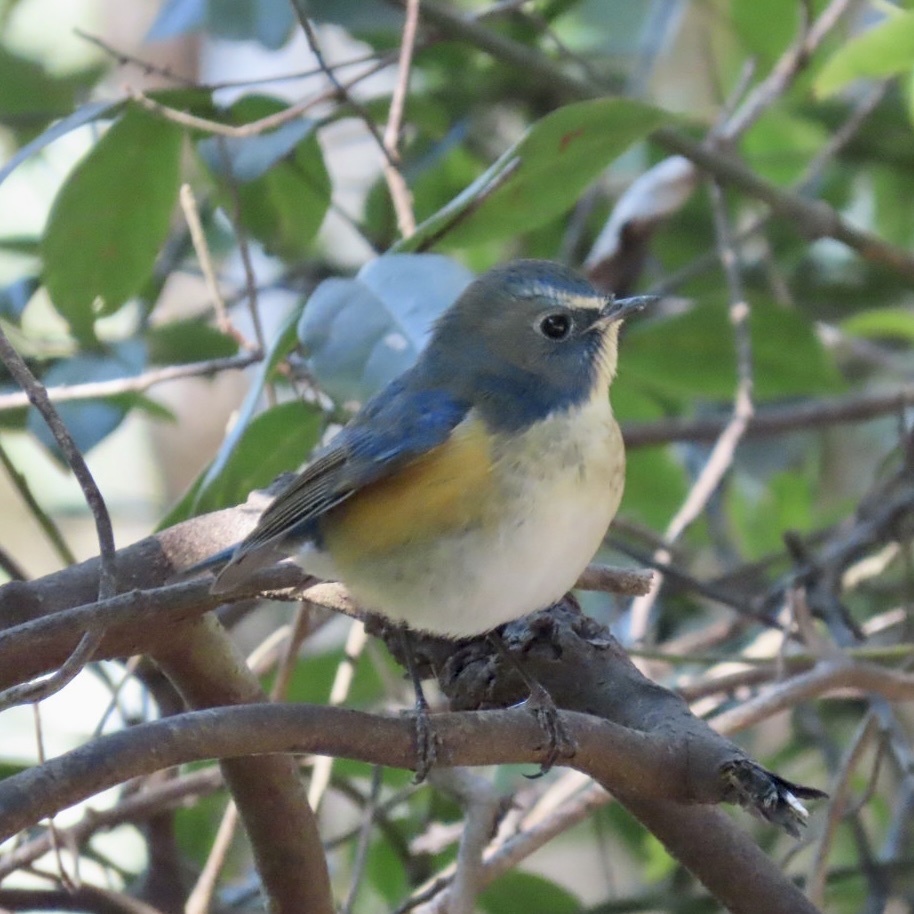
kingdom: Animalia
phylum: Chordata
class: Aves
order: Passeriformes
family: Muscicapidae
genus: Tarsiger
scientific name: Tarsiger cyanurus
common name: Red-flanked bluetail
